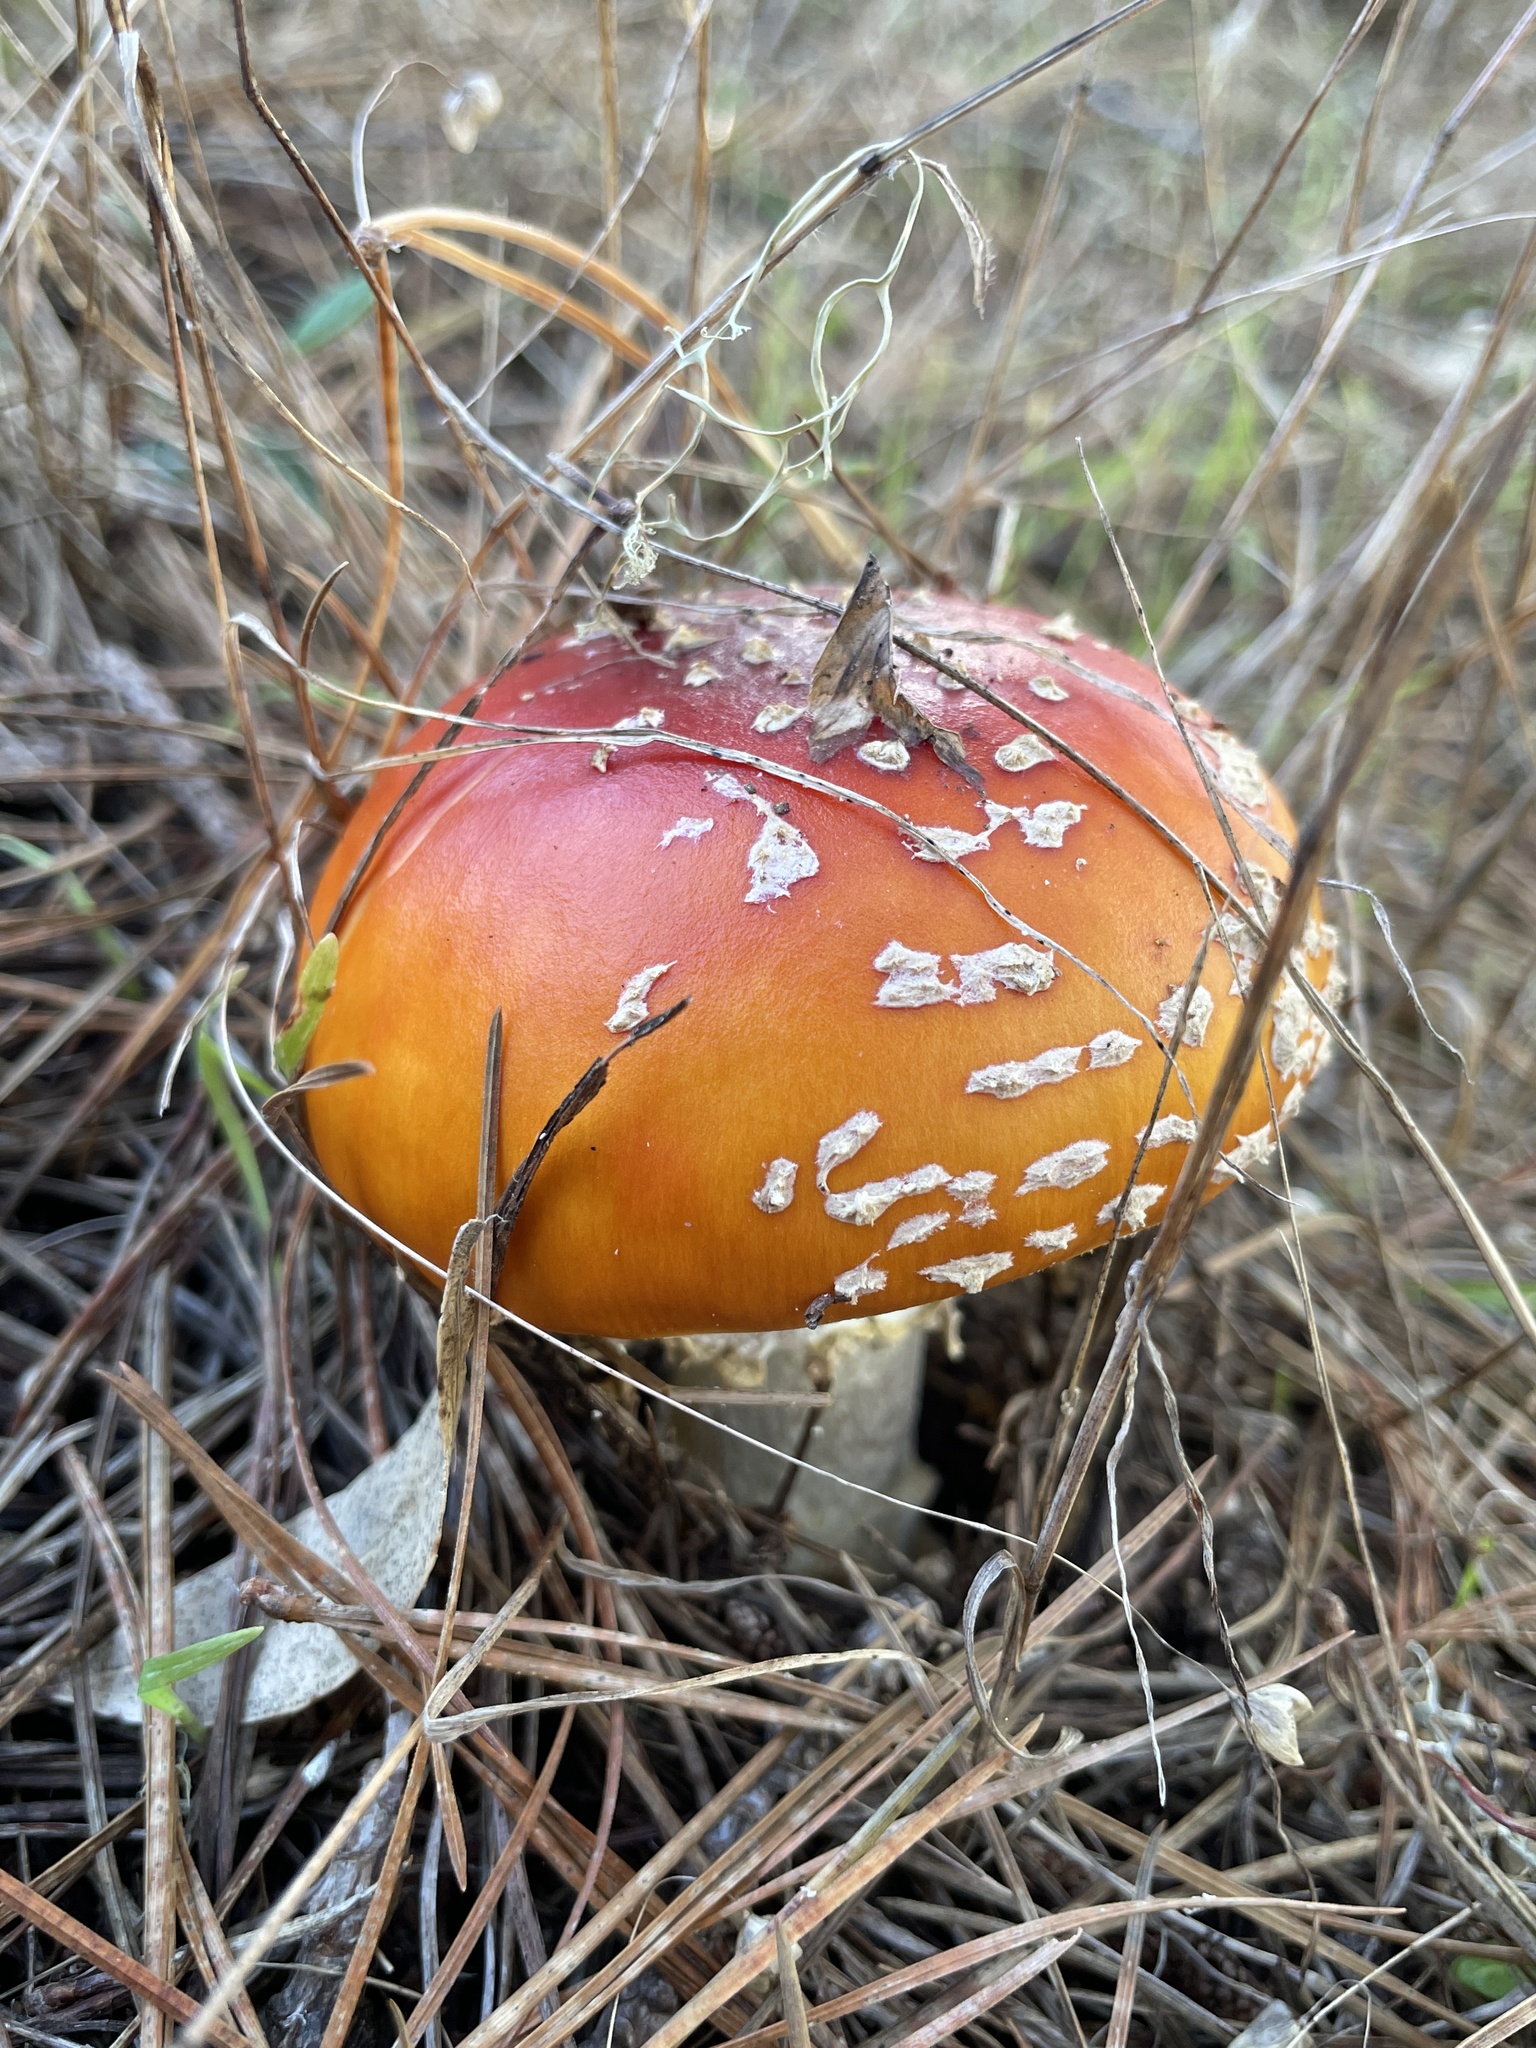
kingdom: Fungi
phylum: Basidiomycota
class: Agaricomycetes
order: Agaricales
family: Amanitaceae
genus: Amanita
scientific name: Amanita muscaria
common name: Fly agaric
